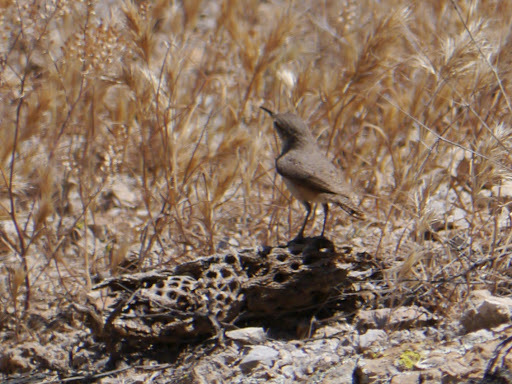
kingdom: Animalia
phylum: Chordata
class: Aves
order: Passeriformes
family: Troglodytidae
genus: Salpinctes
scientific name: Salpinctes obsoletus
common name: Rock wren
